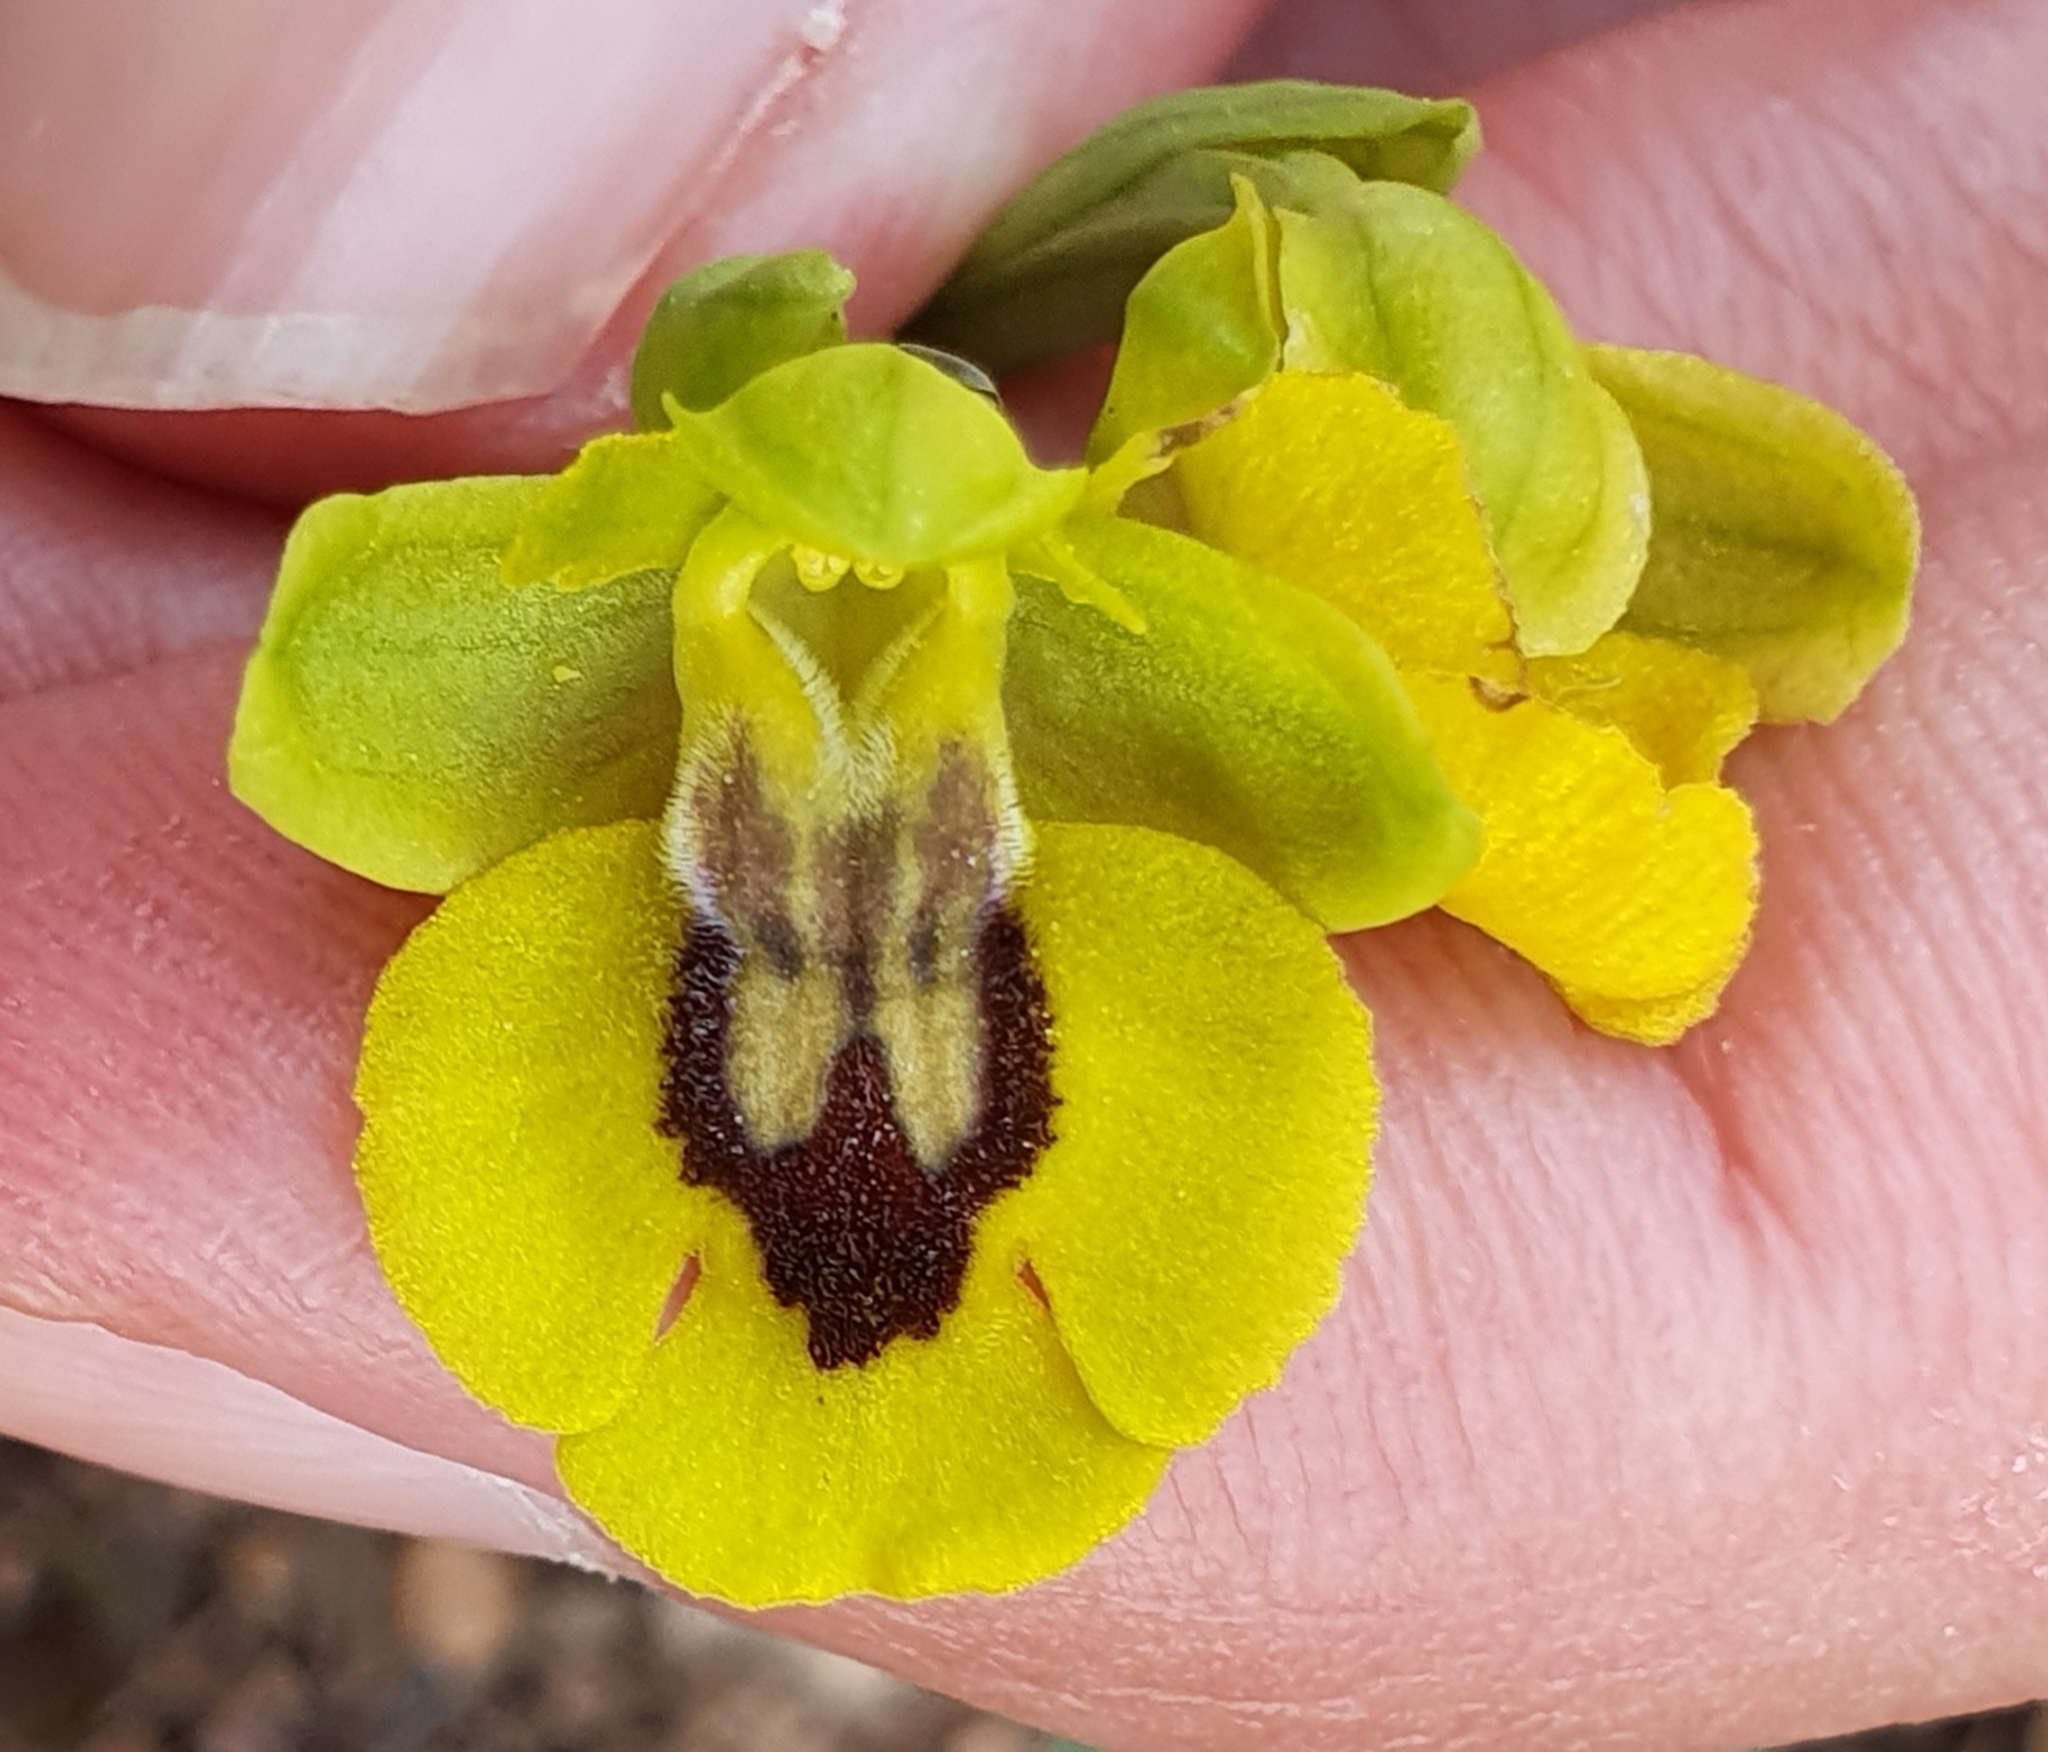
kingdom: Plantae
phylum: Tracheophyta
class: Liliopsida
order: Asparagales
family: Orchidaceae
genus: Ophrys
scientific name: Ophrys lutea
